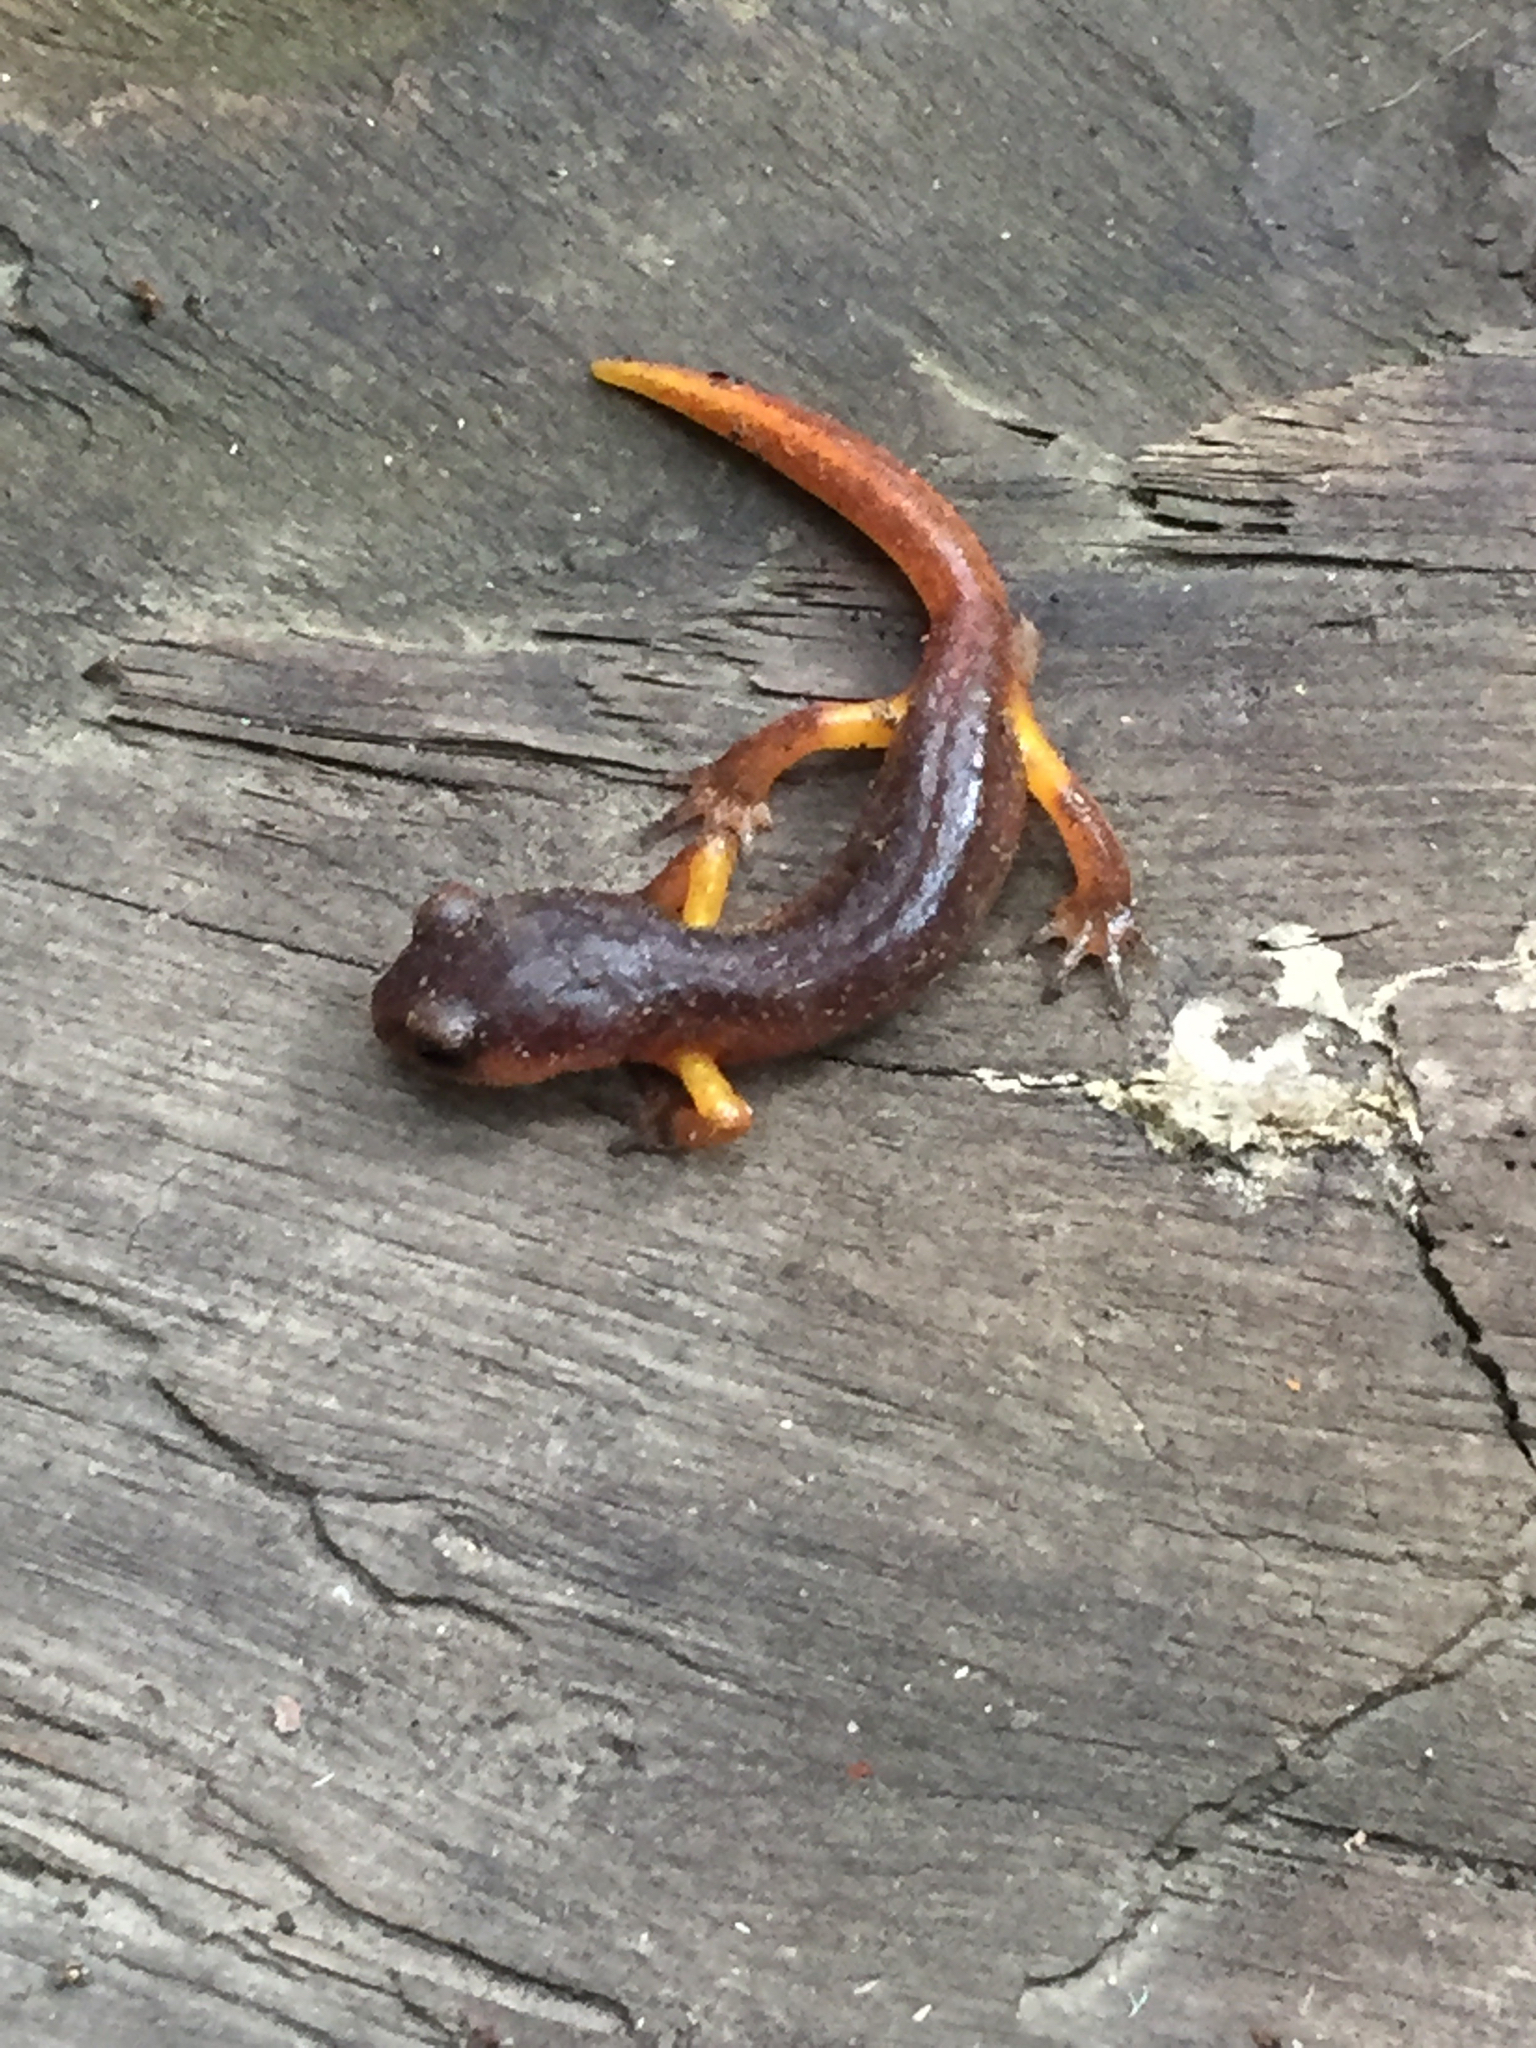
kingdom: Animalia
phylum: Chordata
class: Amphibia
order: Caudata
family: Plethodontidae
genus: Ensatina
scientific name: Ensatina eschscholtzii
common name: Ensatina
